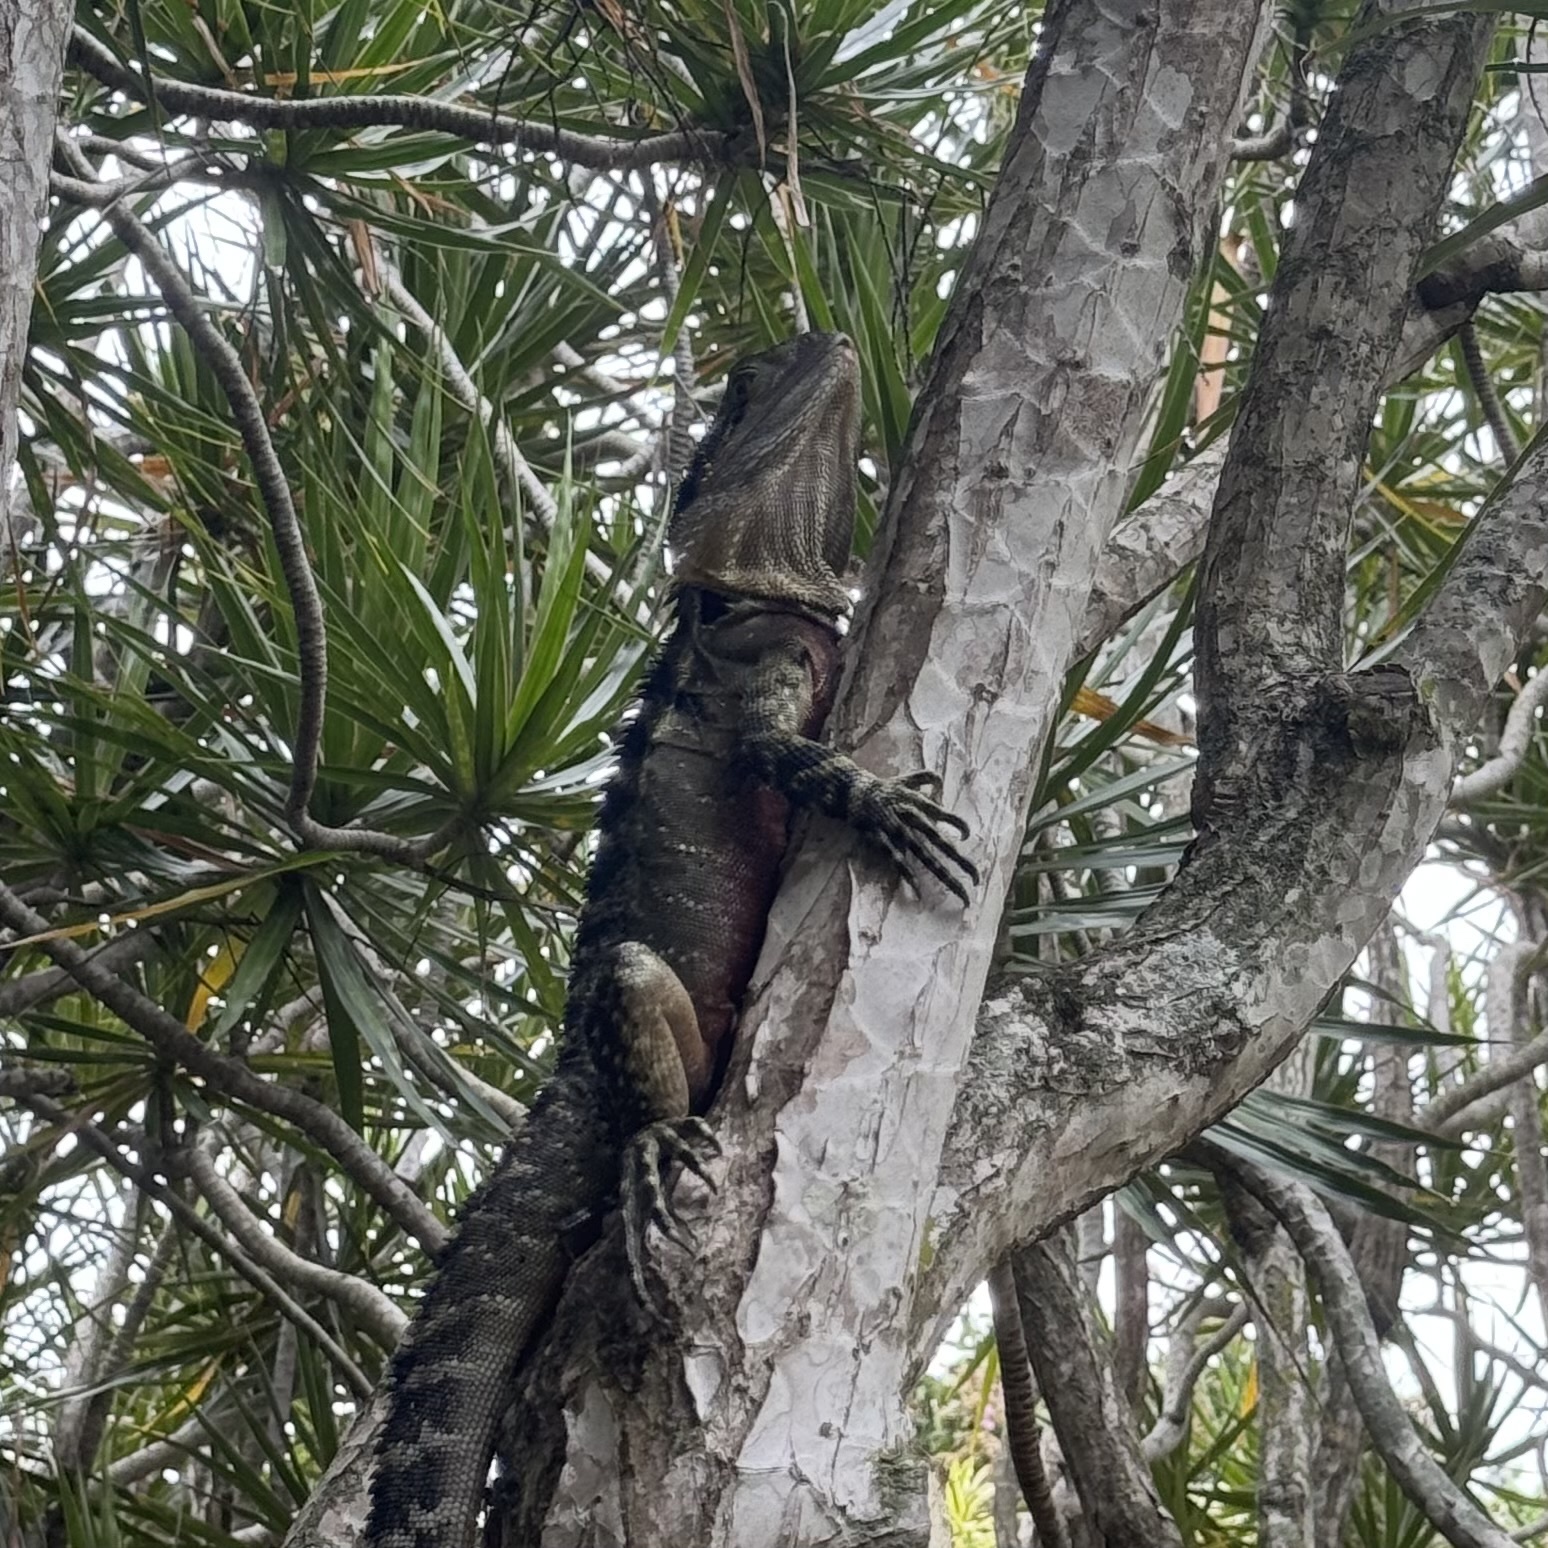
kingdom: Animalia
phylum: Chordata
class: Squamata
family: Agamidae
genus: Intellagama
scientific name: Intellagama lesueurii
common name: Eastern water dragon
